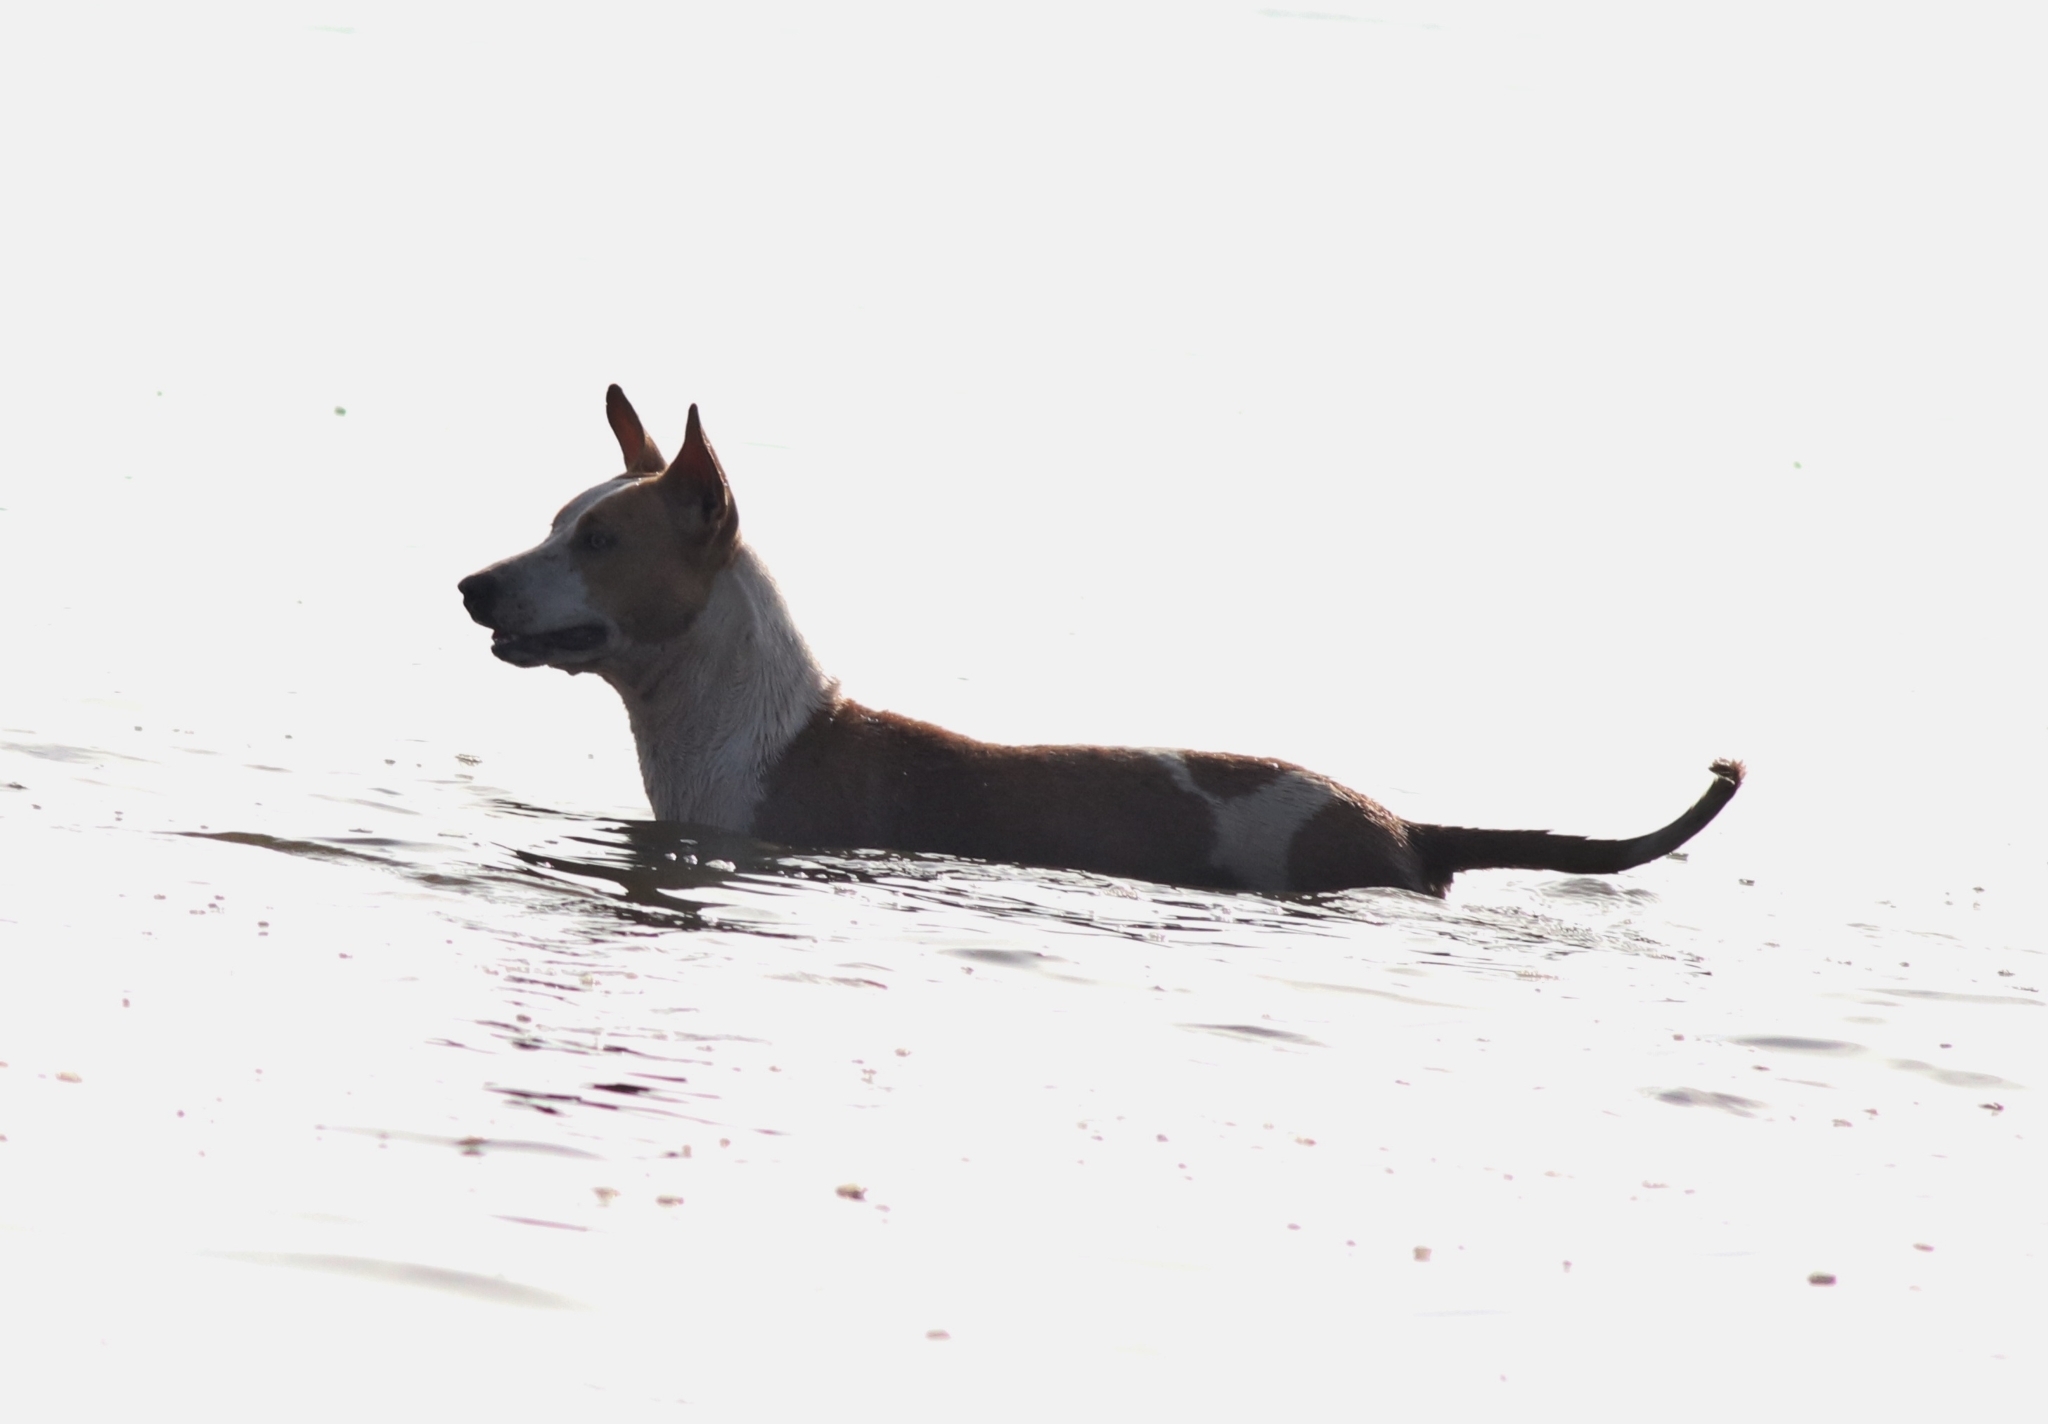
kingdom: Animalia
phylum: Chordata
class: Mammalia
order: Carnivora
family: Canidae
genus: Canis
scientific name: Canis lupus
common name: Gray wolf
